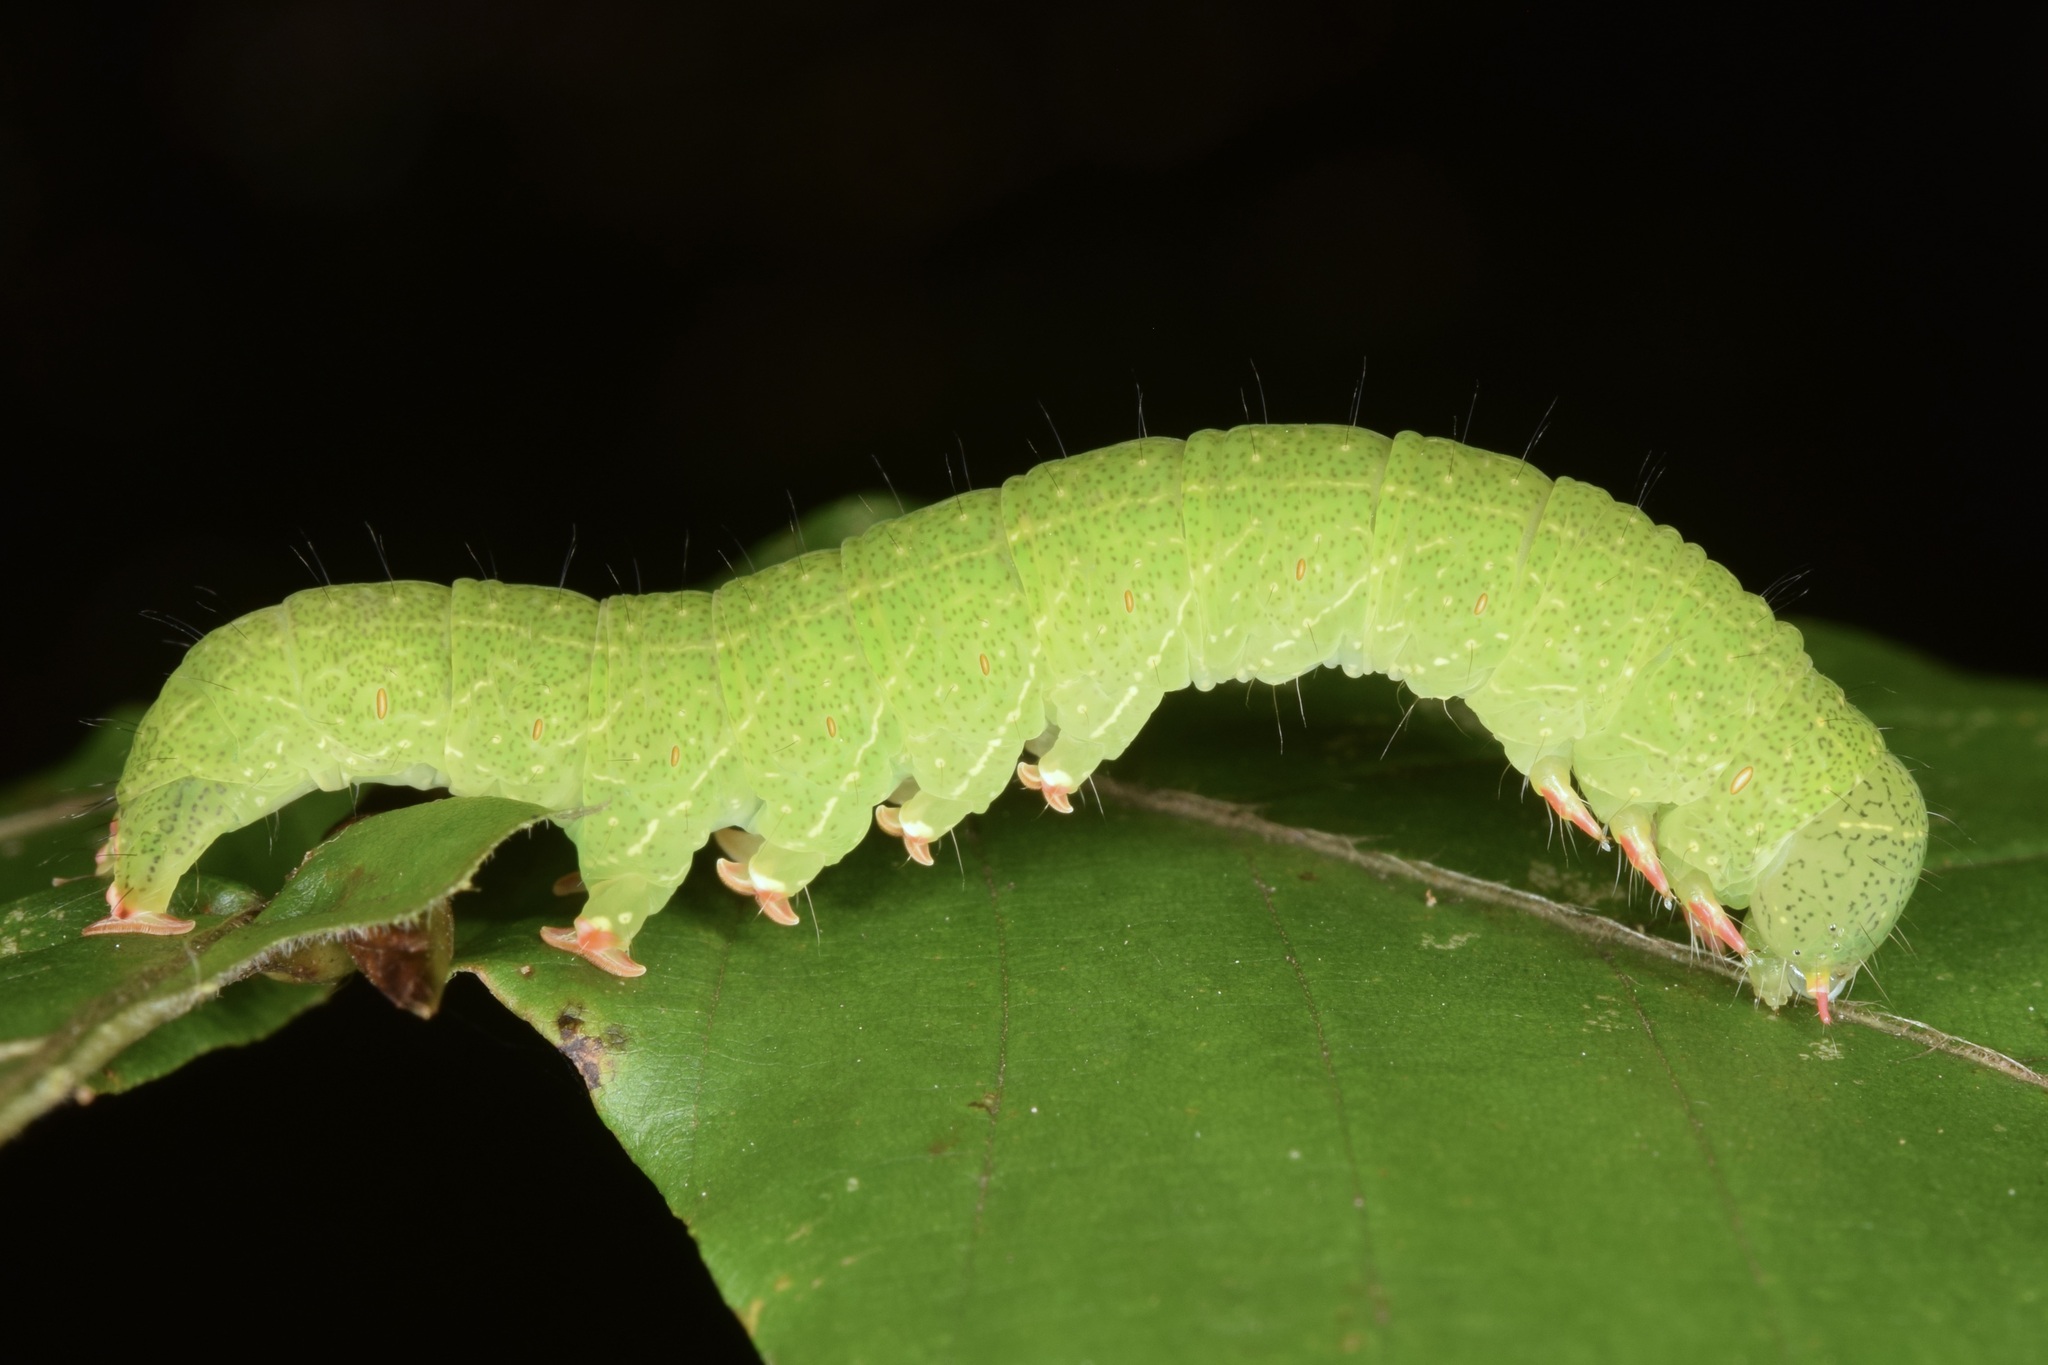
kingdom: Animalia
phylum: Arthropoda
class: Insecta
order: Lepidoptera
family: Erebidae
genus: Panopoda
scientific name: Panopoda rufimargo
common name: Red-lined panopoda moth
